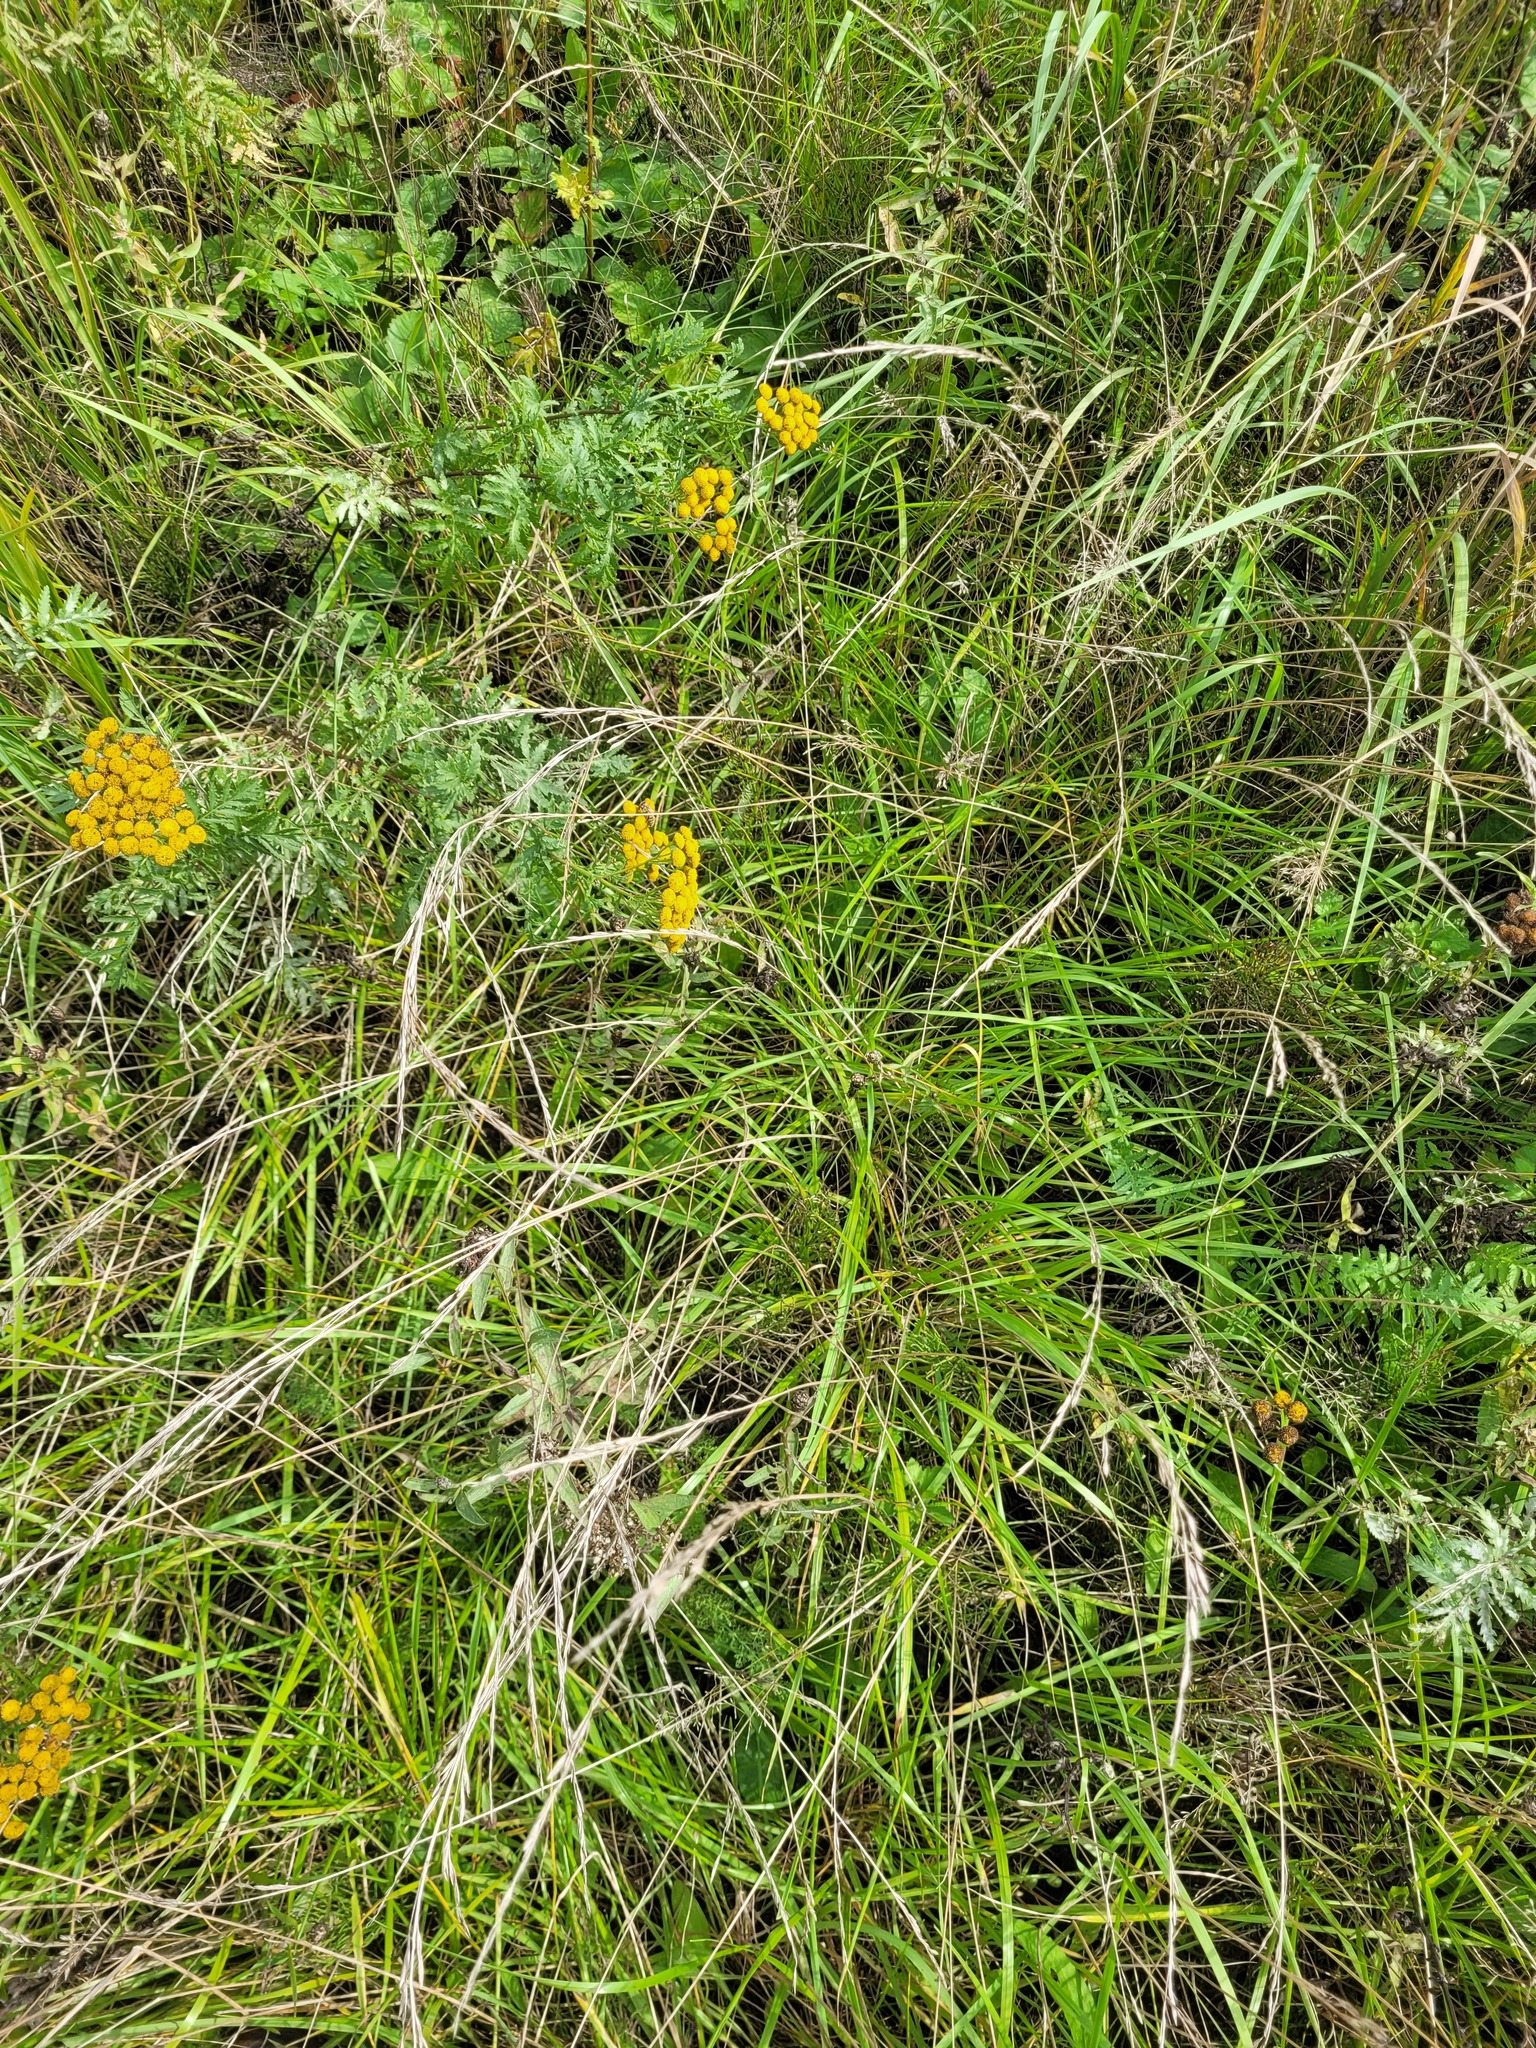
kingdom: Plantae
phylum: Tracheophyta
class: Liliopsida
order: Poales
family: Poaceae
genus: Lolium
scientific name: Lolium pratense
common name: Dover grass
